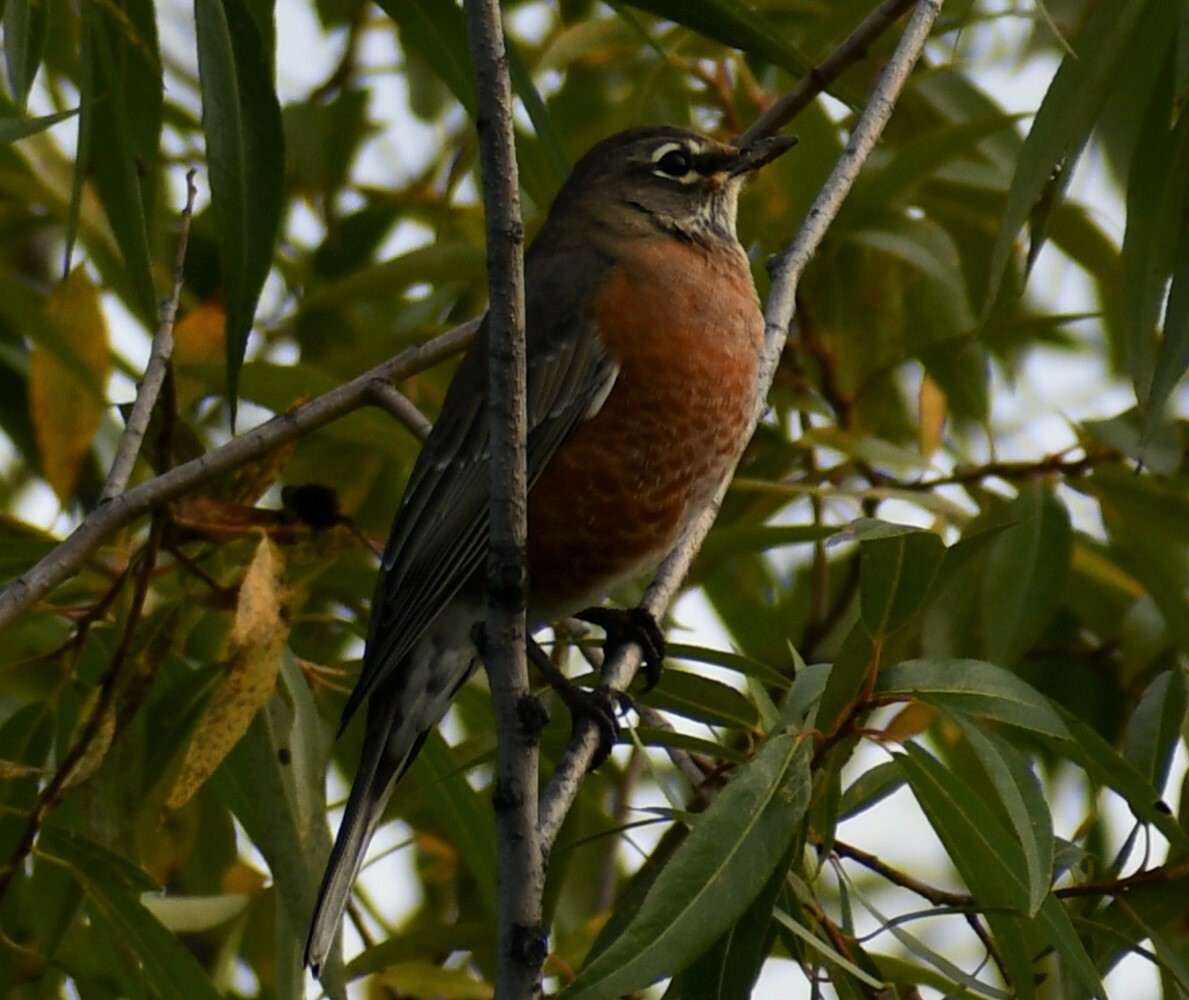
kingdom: Animalia
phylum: Chordata
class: Aves
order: Passeriformes
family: Turdidae
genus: Turdus
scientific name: Turdus migratorius
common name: American robin
